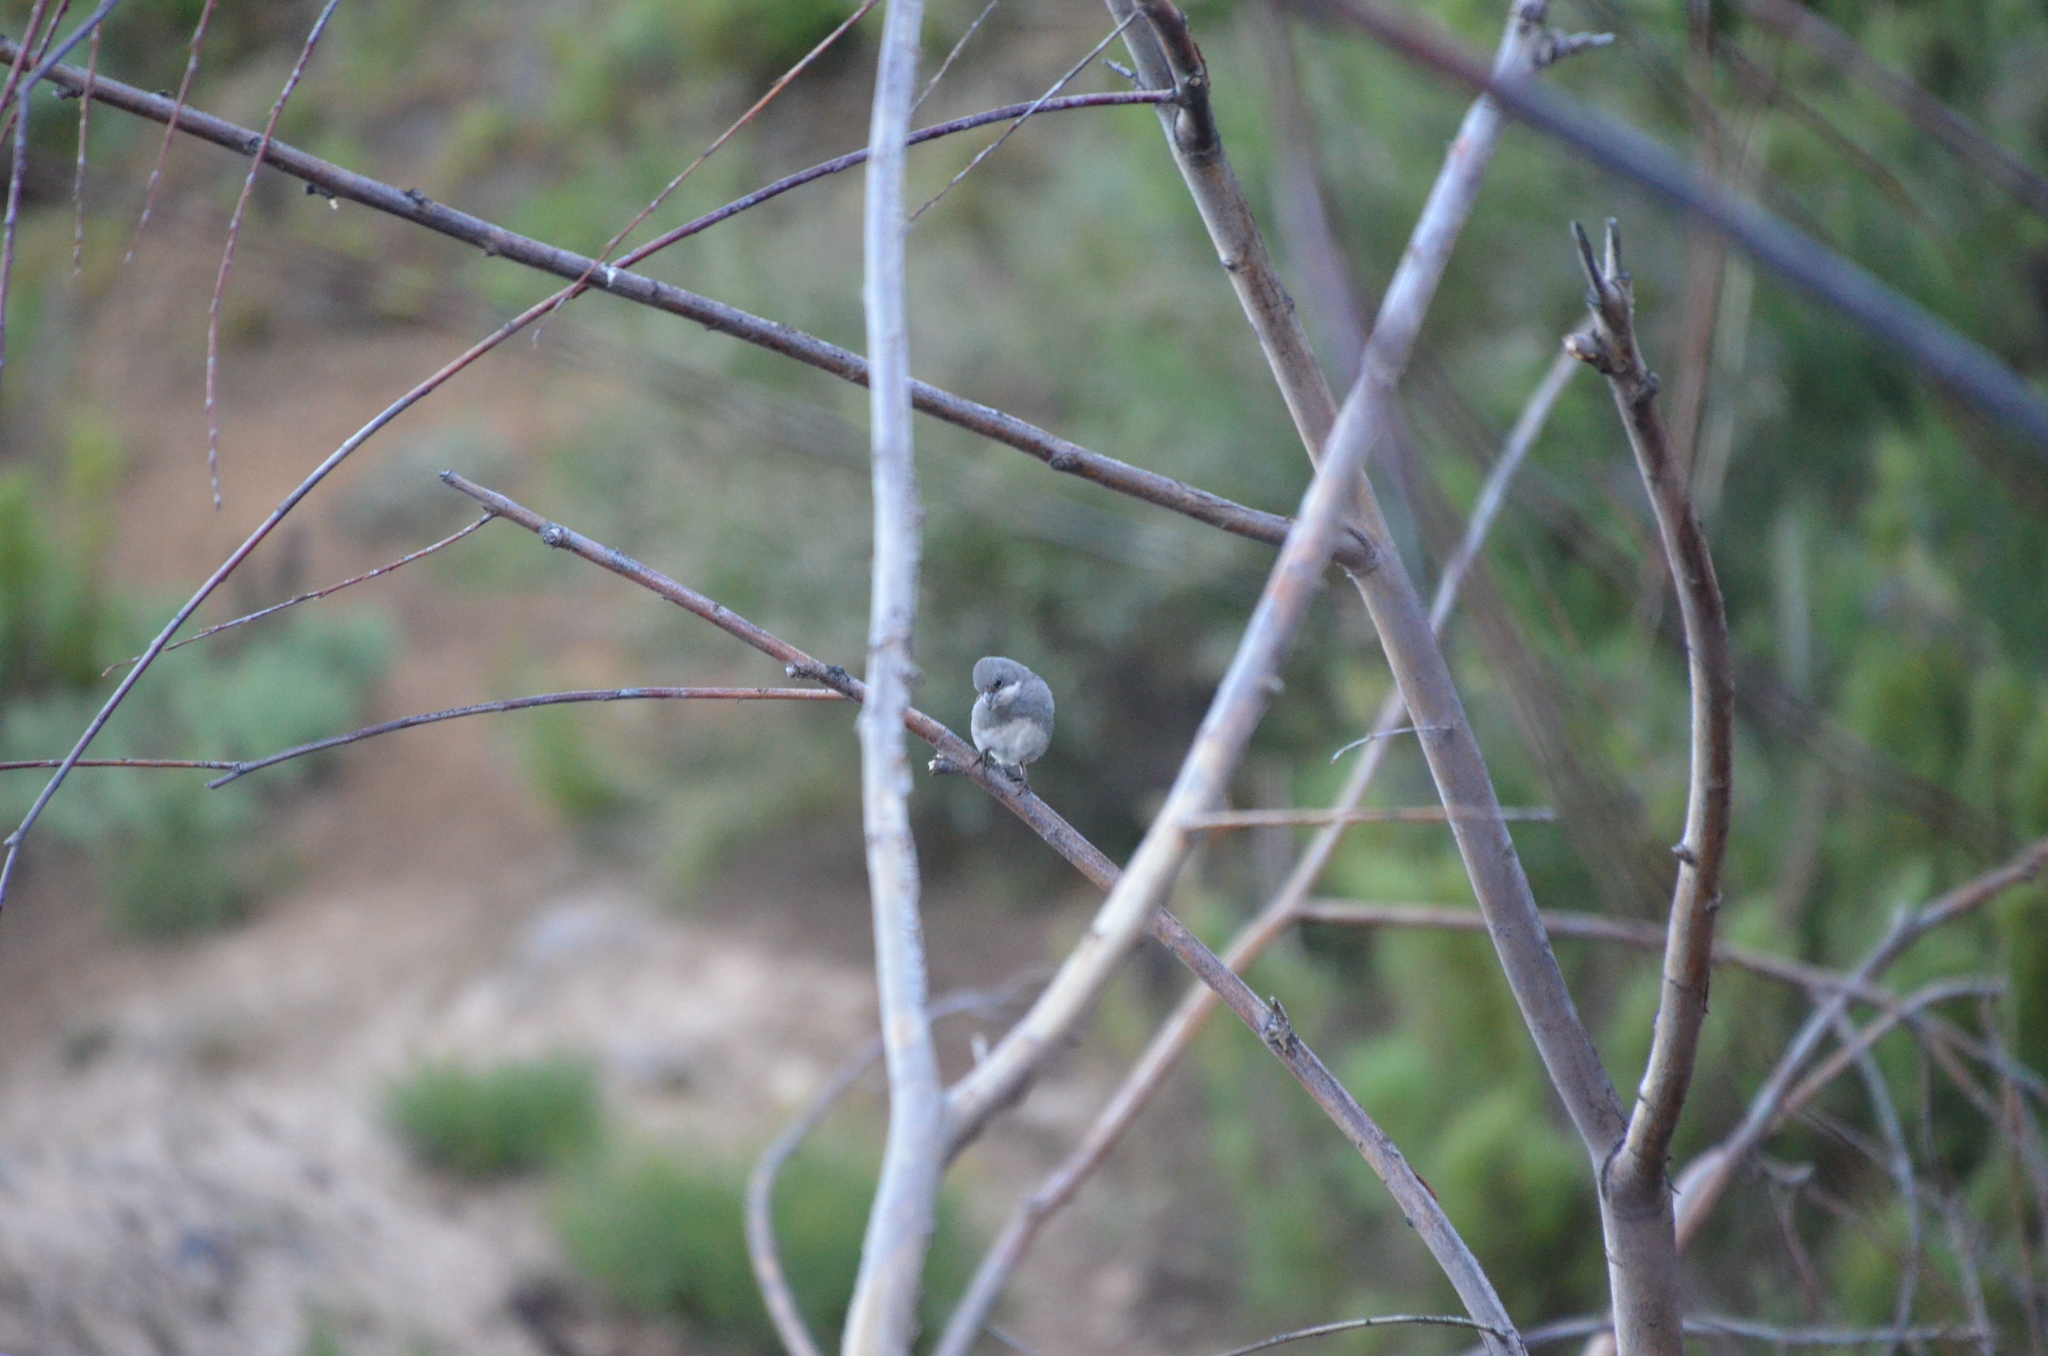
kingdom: Animalia
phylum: Chordata
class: Aves
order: Passeriformes
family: Thraupidae
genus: Diuca
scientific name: Diuca diuca
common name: Common diuca finch
